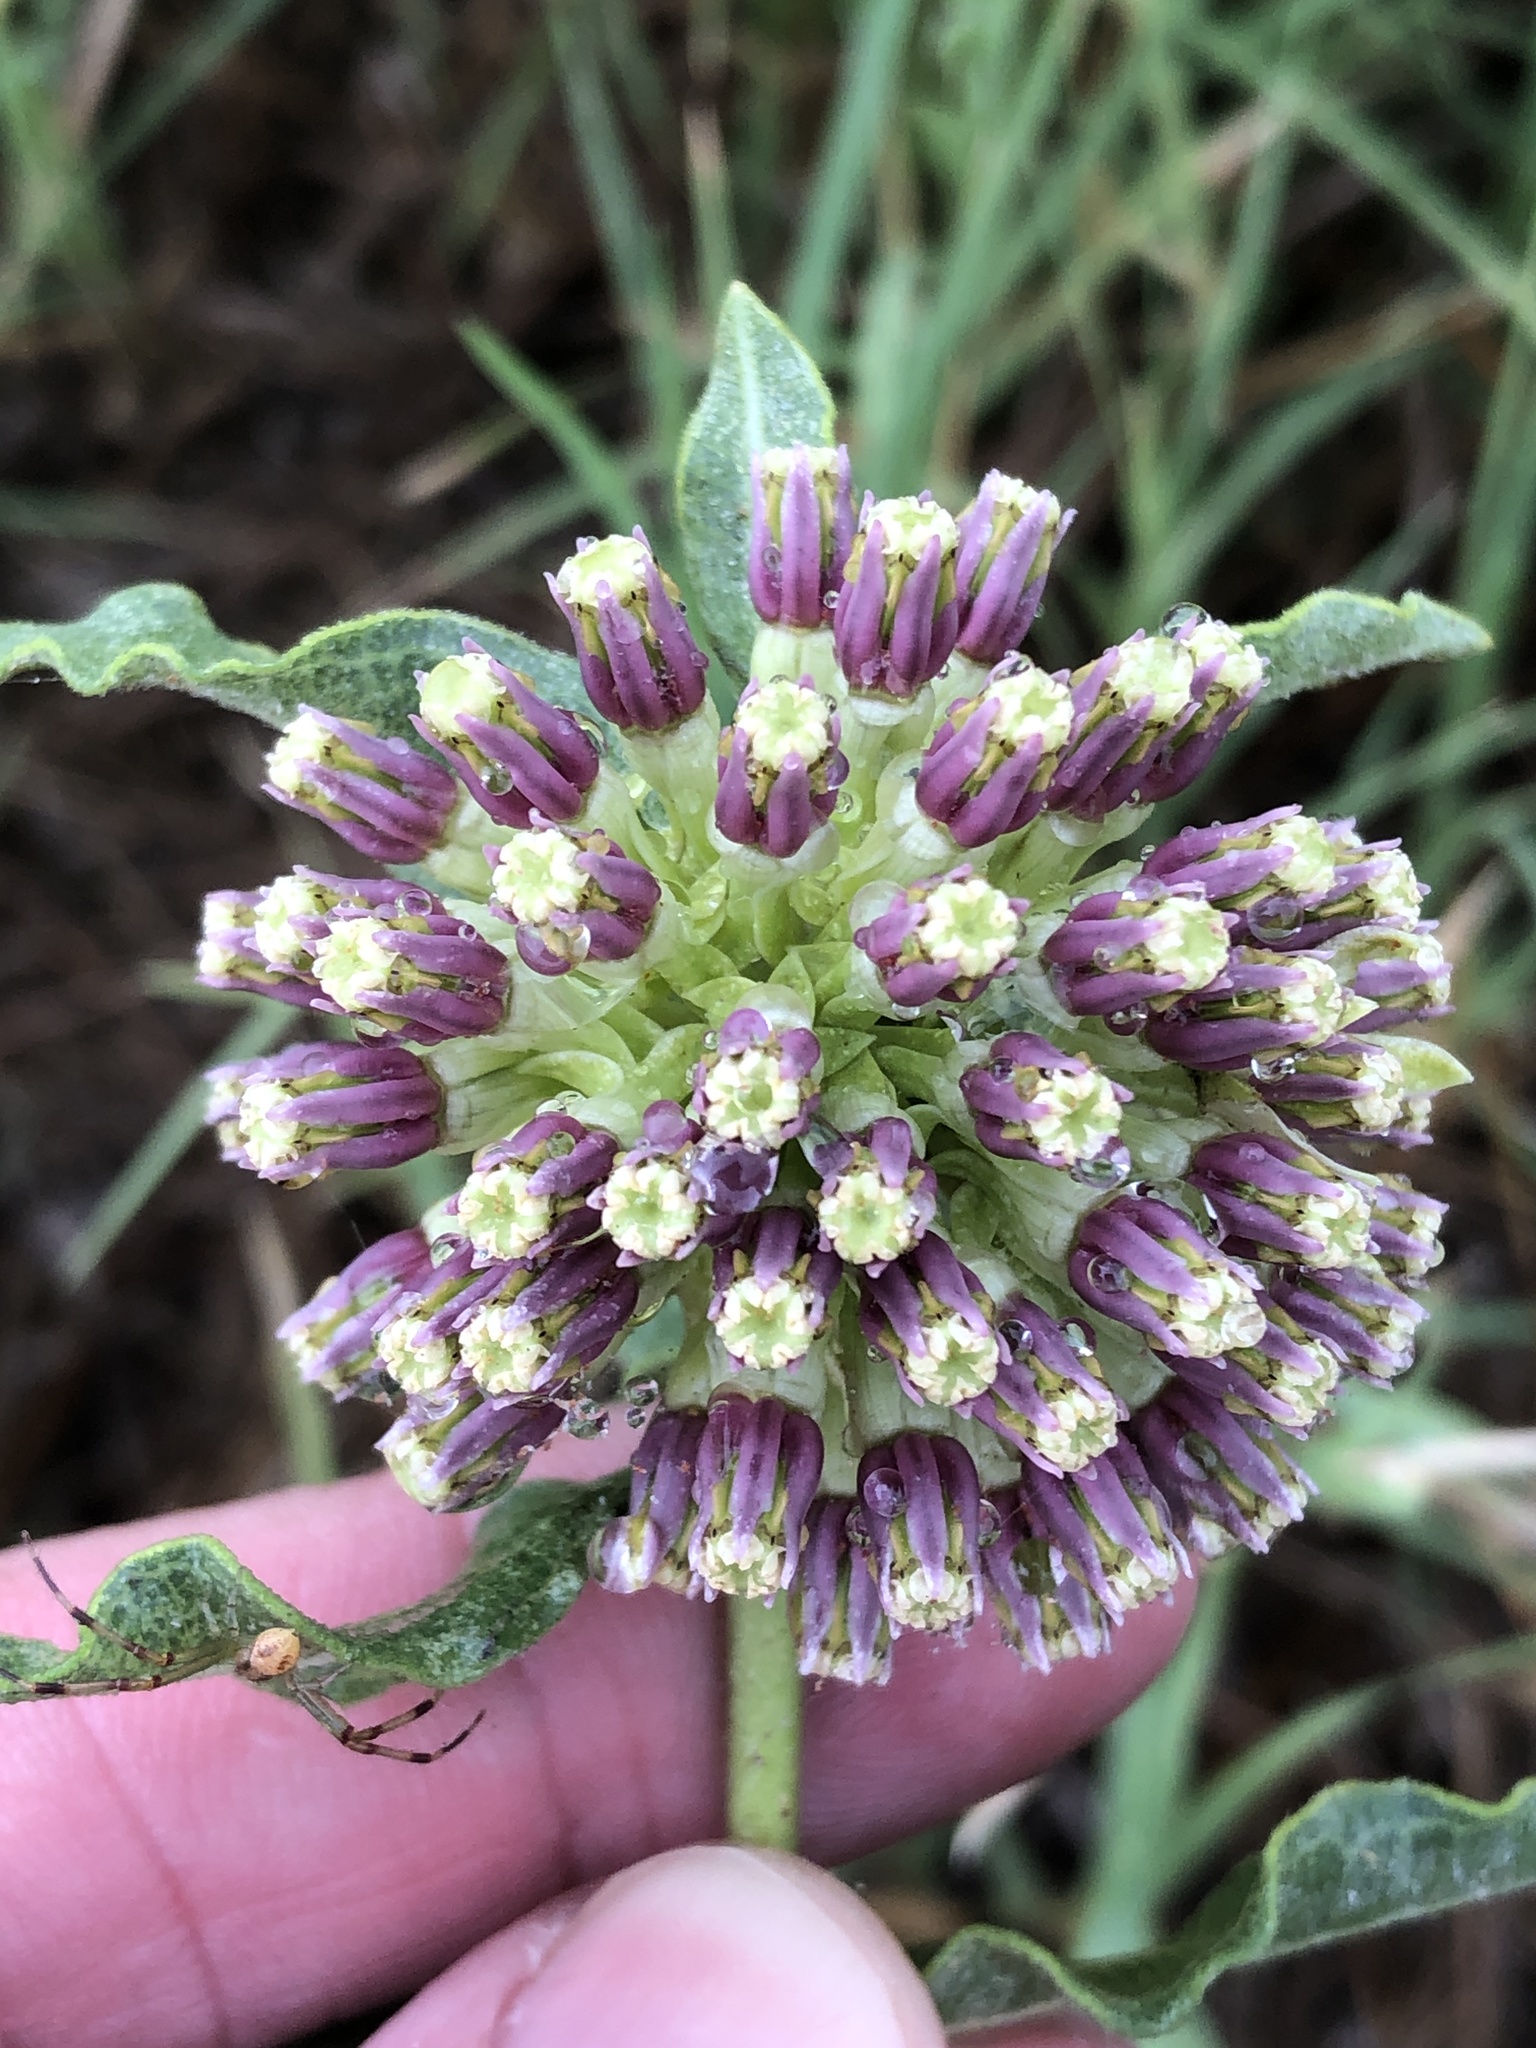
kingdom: Plantae
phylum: Tracheophyta
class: Magnoliopsida
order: Gentianales
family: Apocynaceae
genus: Asclepias
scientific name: Asclepias viridiflora
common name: Green comet milkweed
